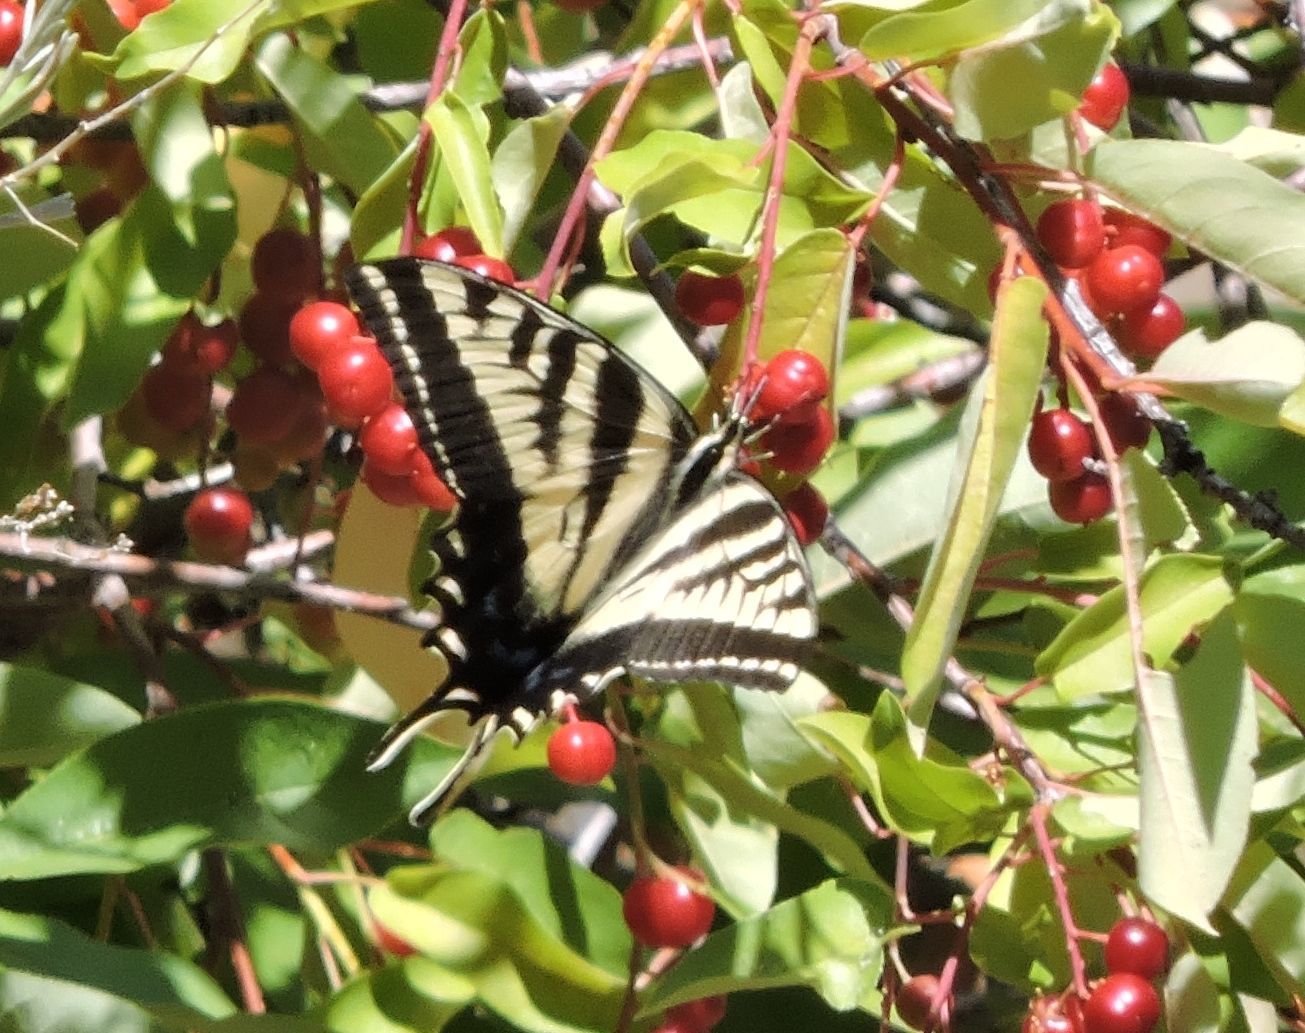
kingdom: Animalia
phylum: Arthropoda
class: Insecta
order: Lepidoptera
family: Papilionidae
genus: Papilio
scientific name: Papilio eurymedon
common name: Pale tiger swallowtail
